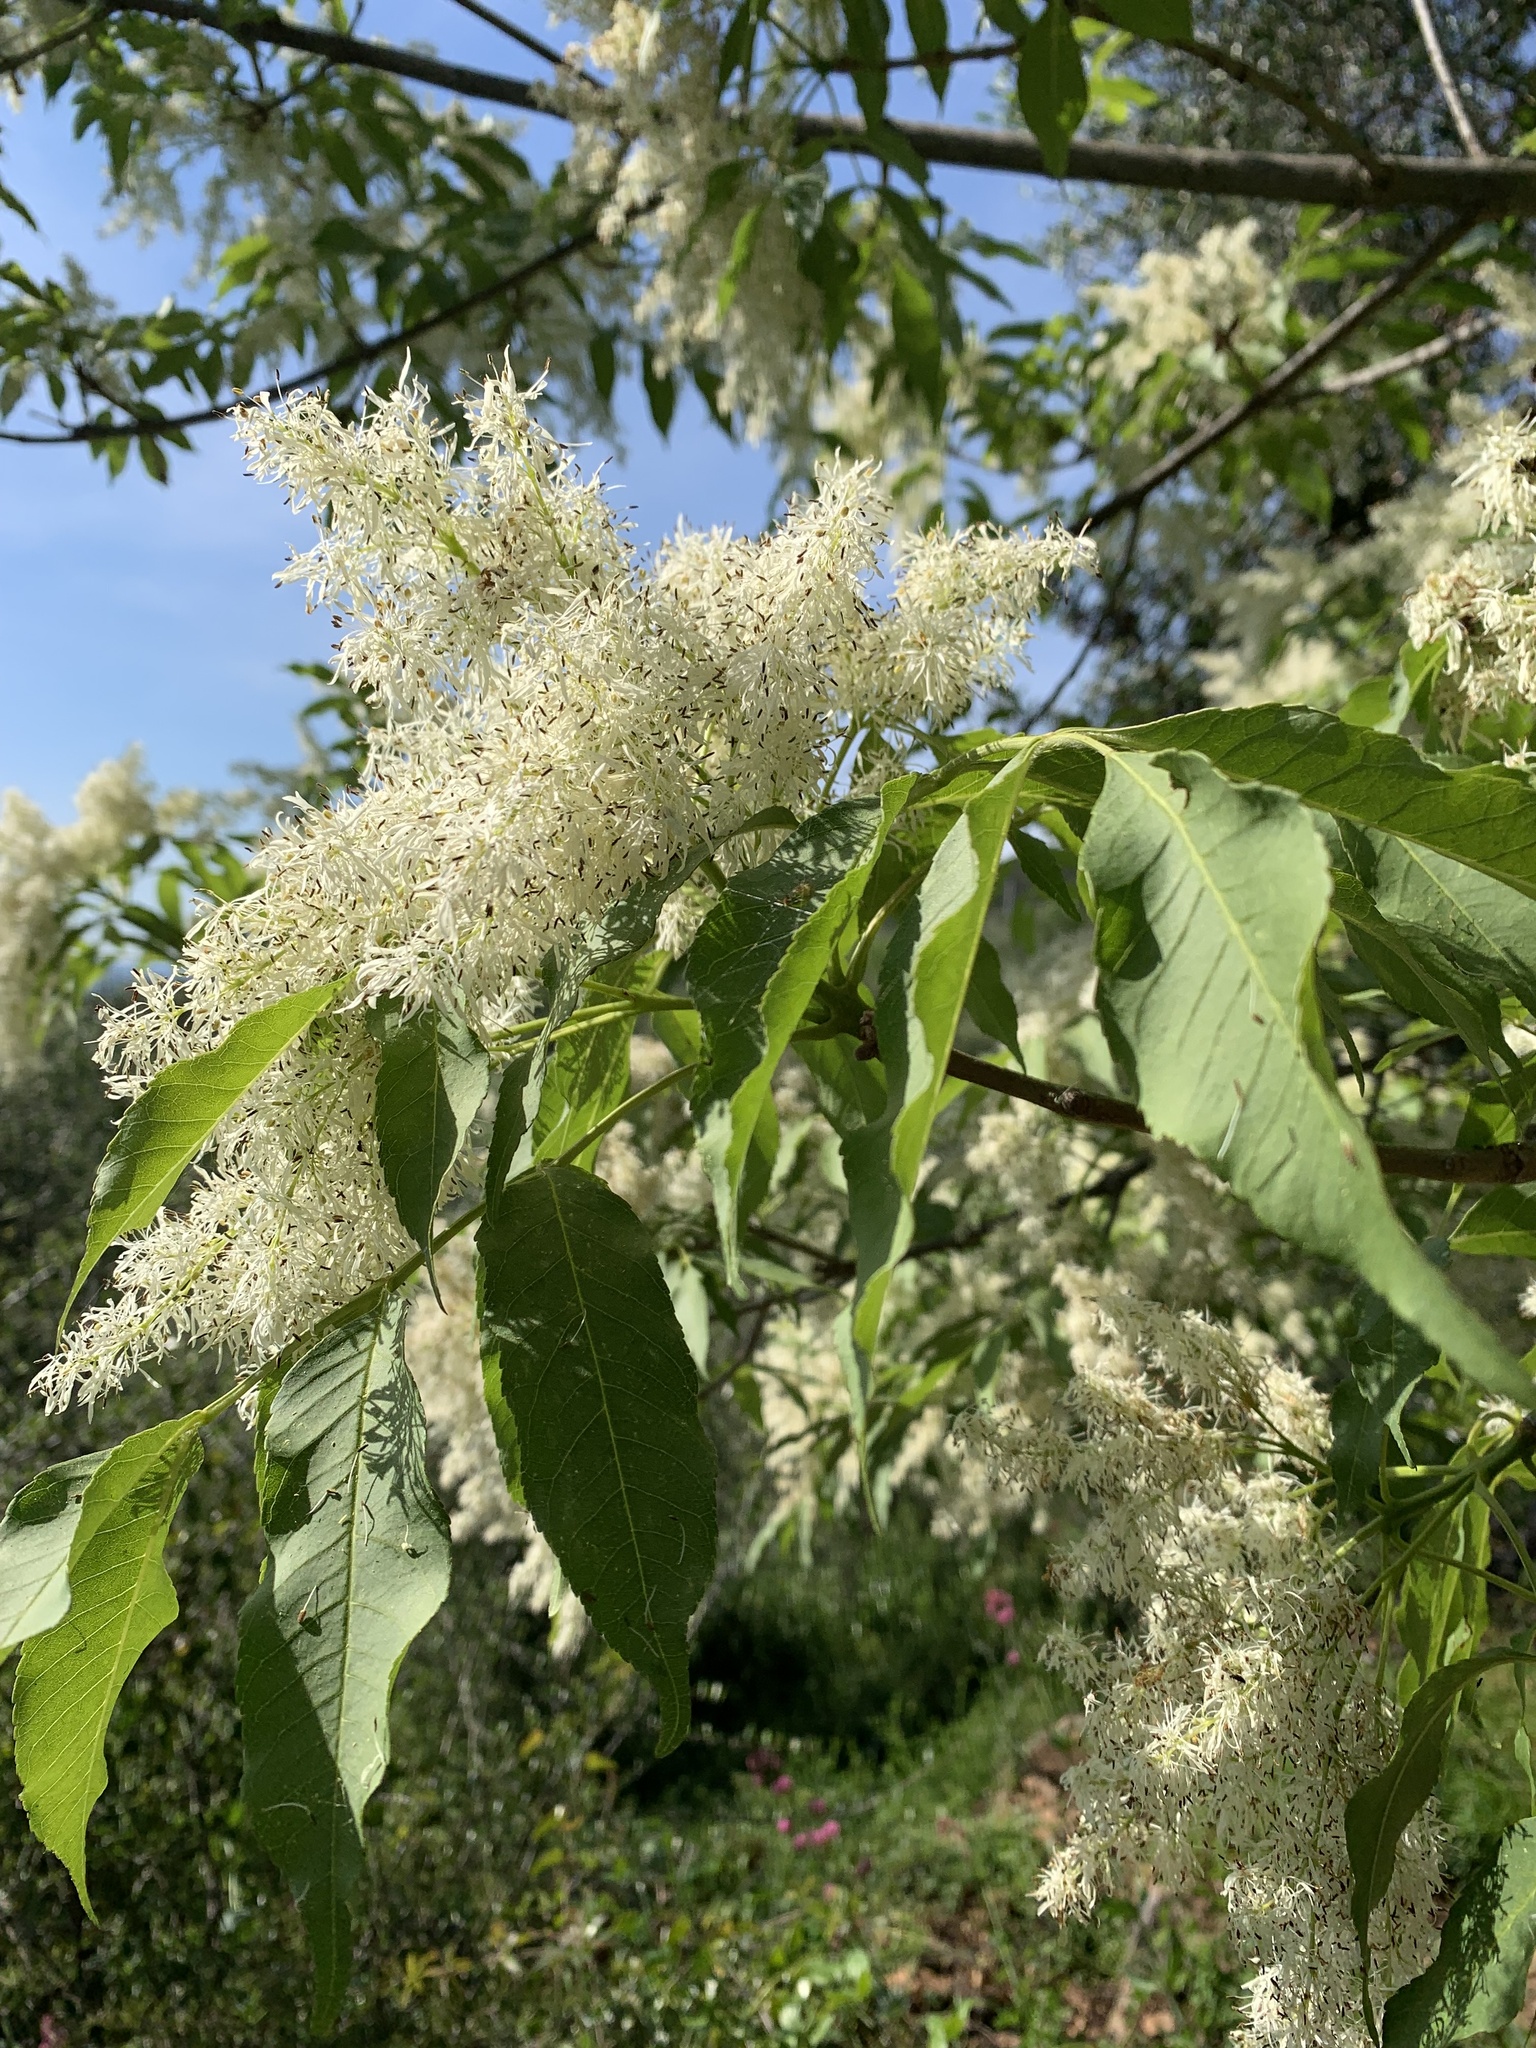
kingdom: Plantae
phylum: Tracheophyta
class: Magnoliopsida
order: Lamiales
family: Oleaceae
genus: Fraxinus
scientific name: Fraxinus ornus
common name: Manna ash
